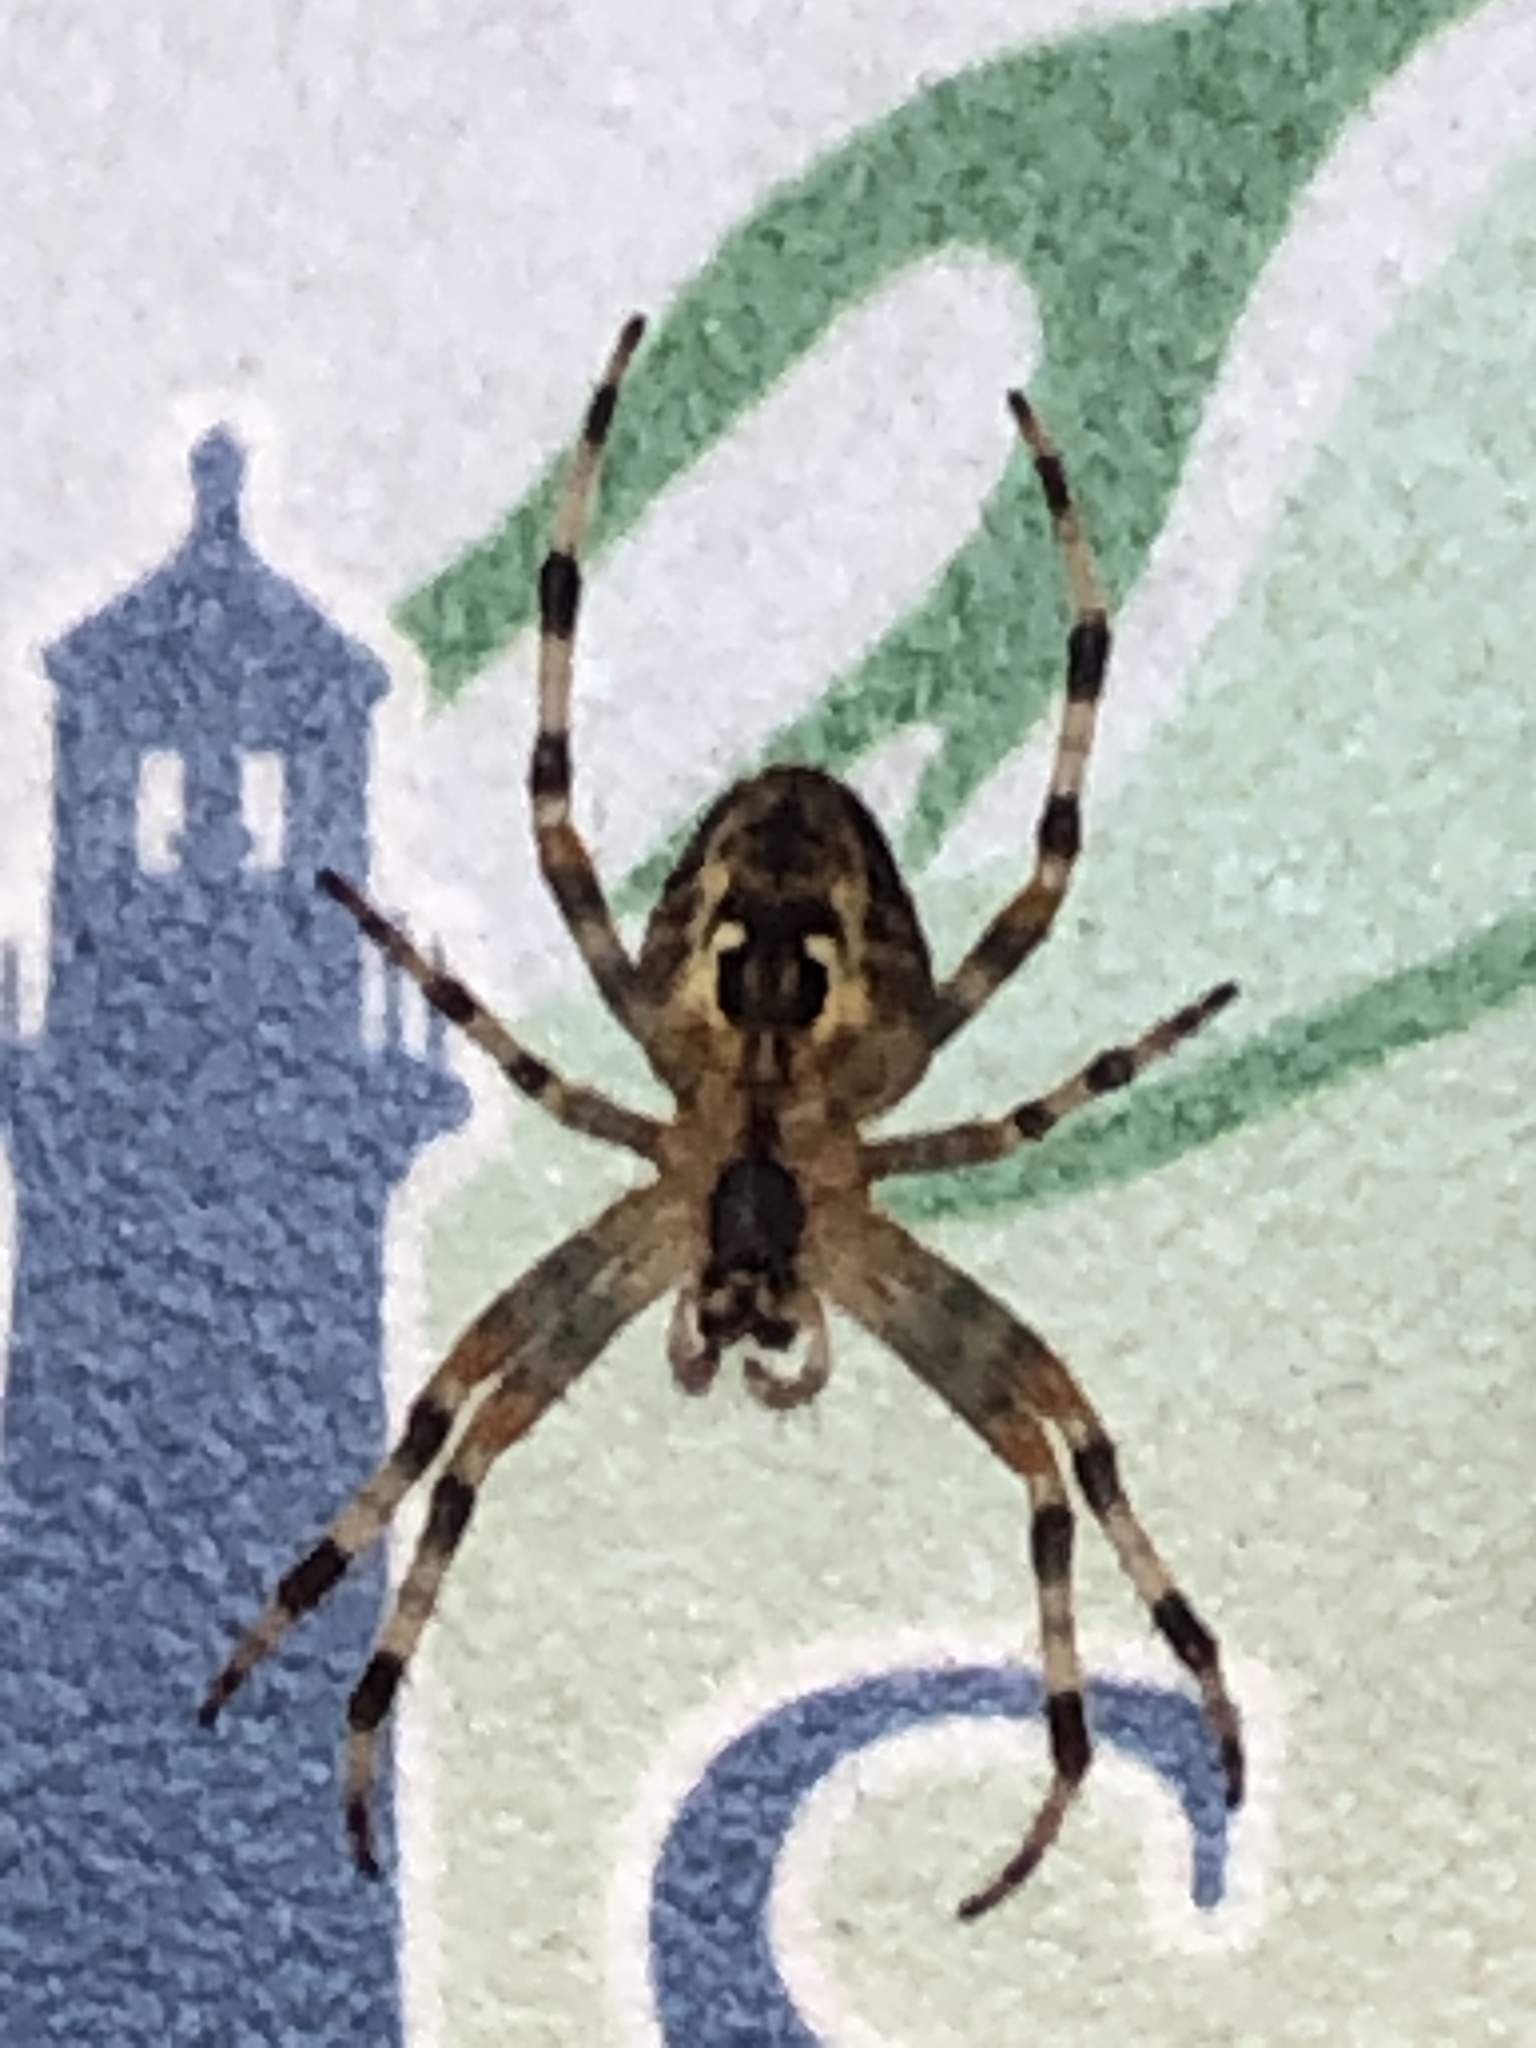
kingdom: Animalia
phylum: Arthropoda
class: Arachnida
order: Araneae
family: Araneidae
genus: Araneus
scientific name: Araneus diadematus
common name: Cross orbweaver
